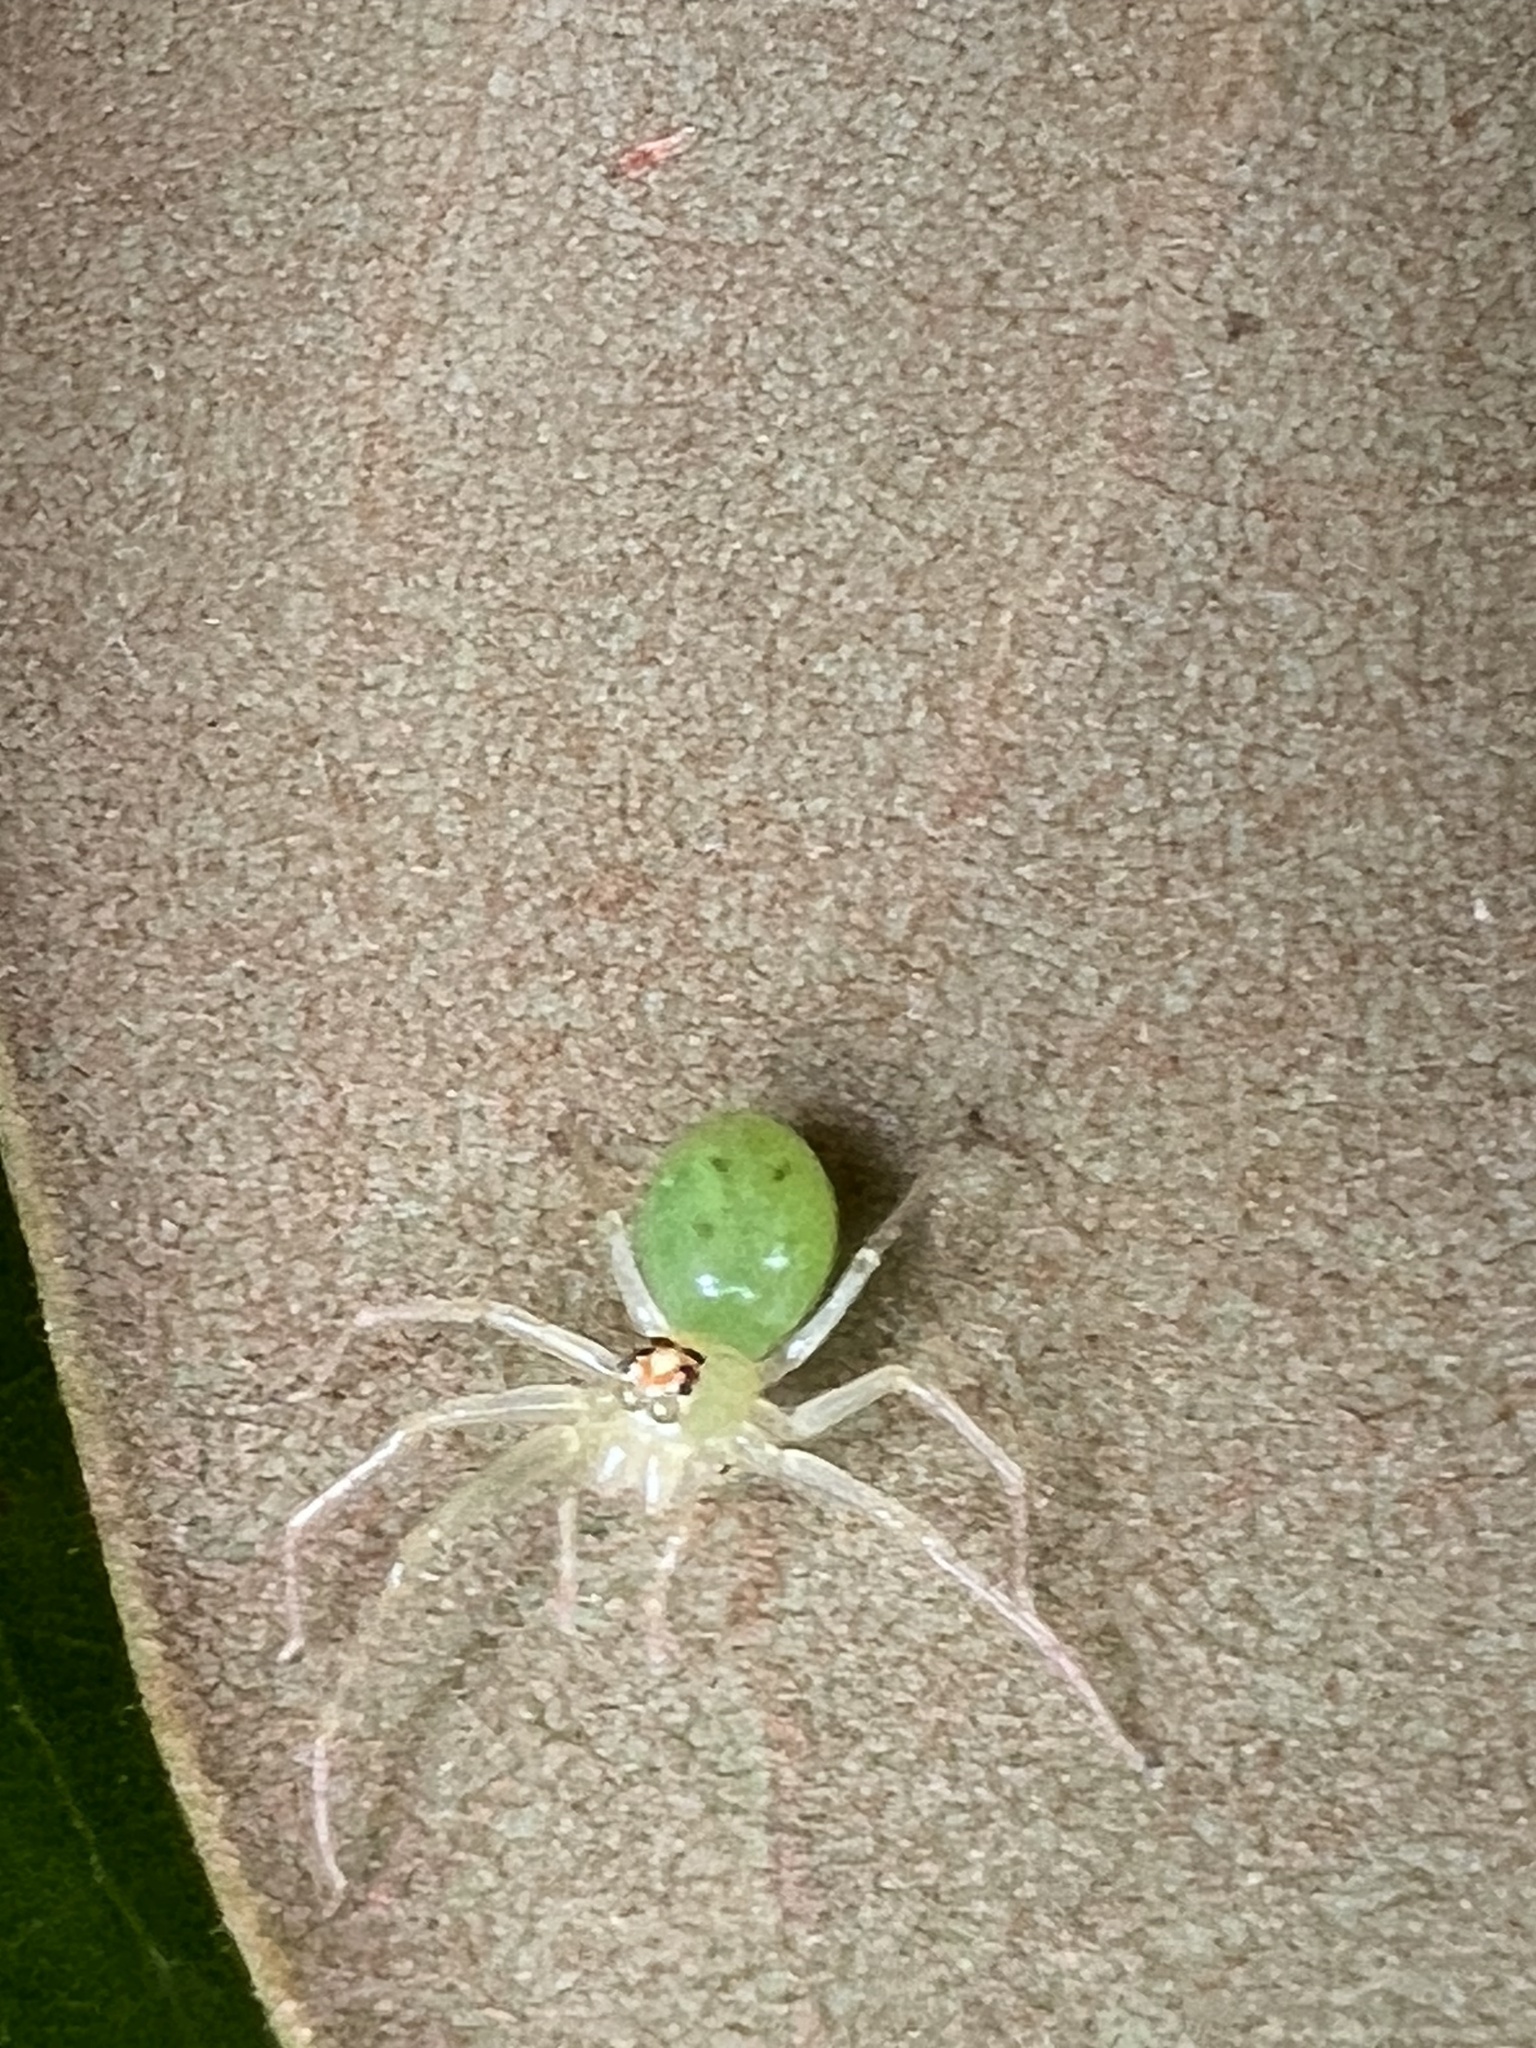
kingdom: Animalia
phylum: Arthropoda
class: Arachnida
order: Araneae
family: Salticidae
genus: Lyssomanes
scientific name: Lyssomanes viridis
